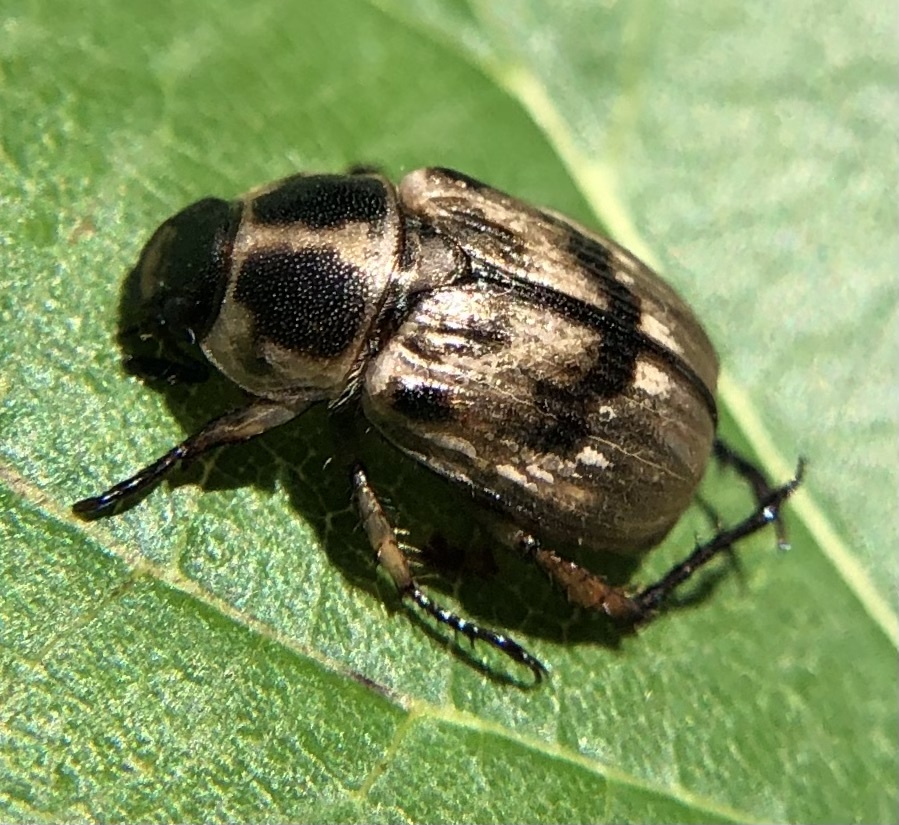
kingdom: Animalia
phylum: Arthropoda
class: Insecta
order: Coleoptera
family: Scarabaeidae
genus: Exomala
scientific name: Exomala orientalis
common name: Oriental beetle
